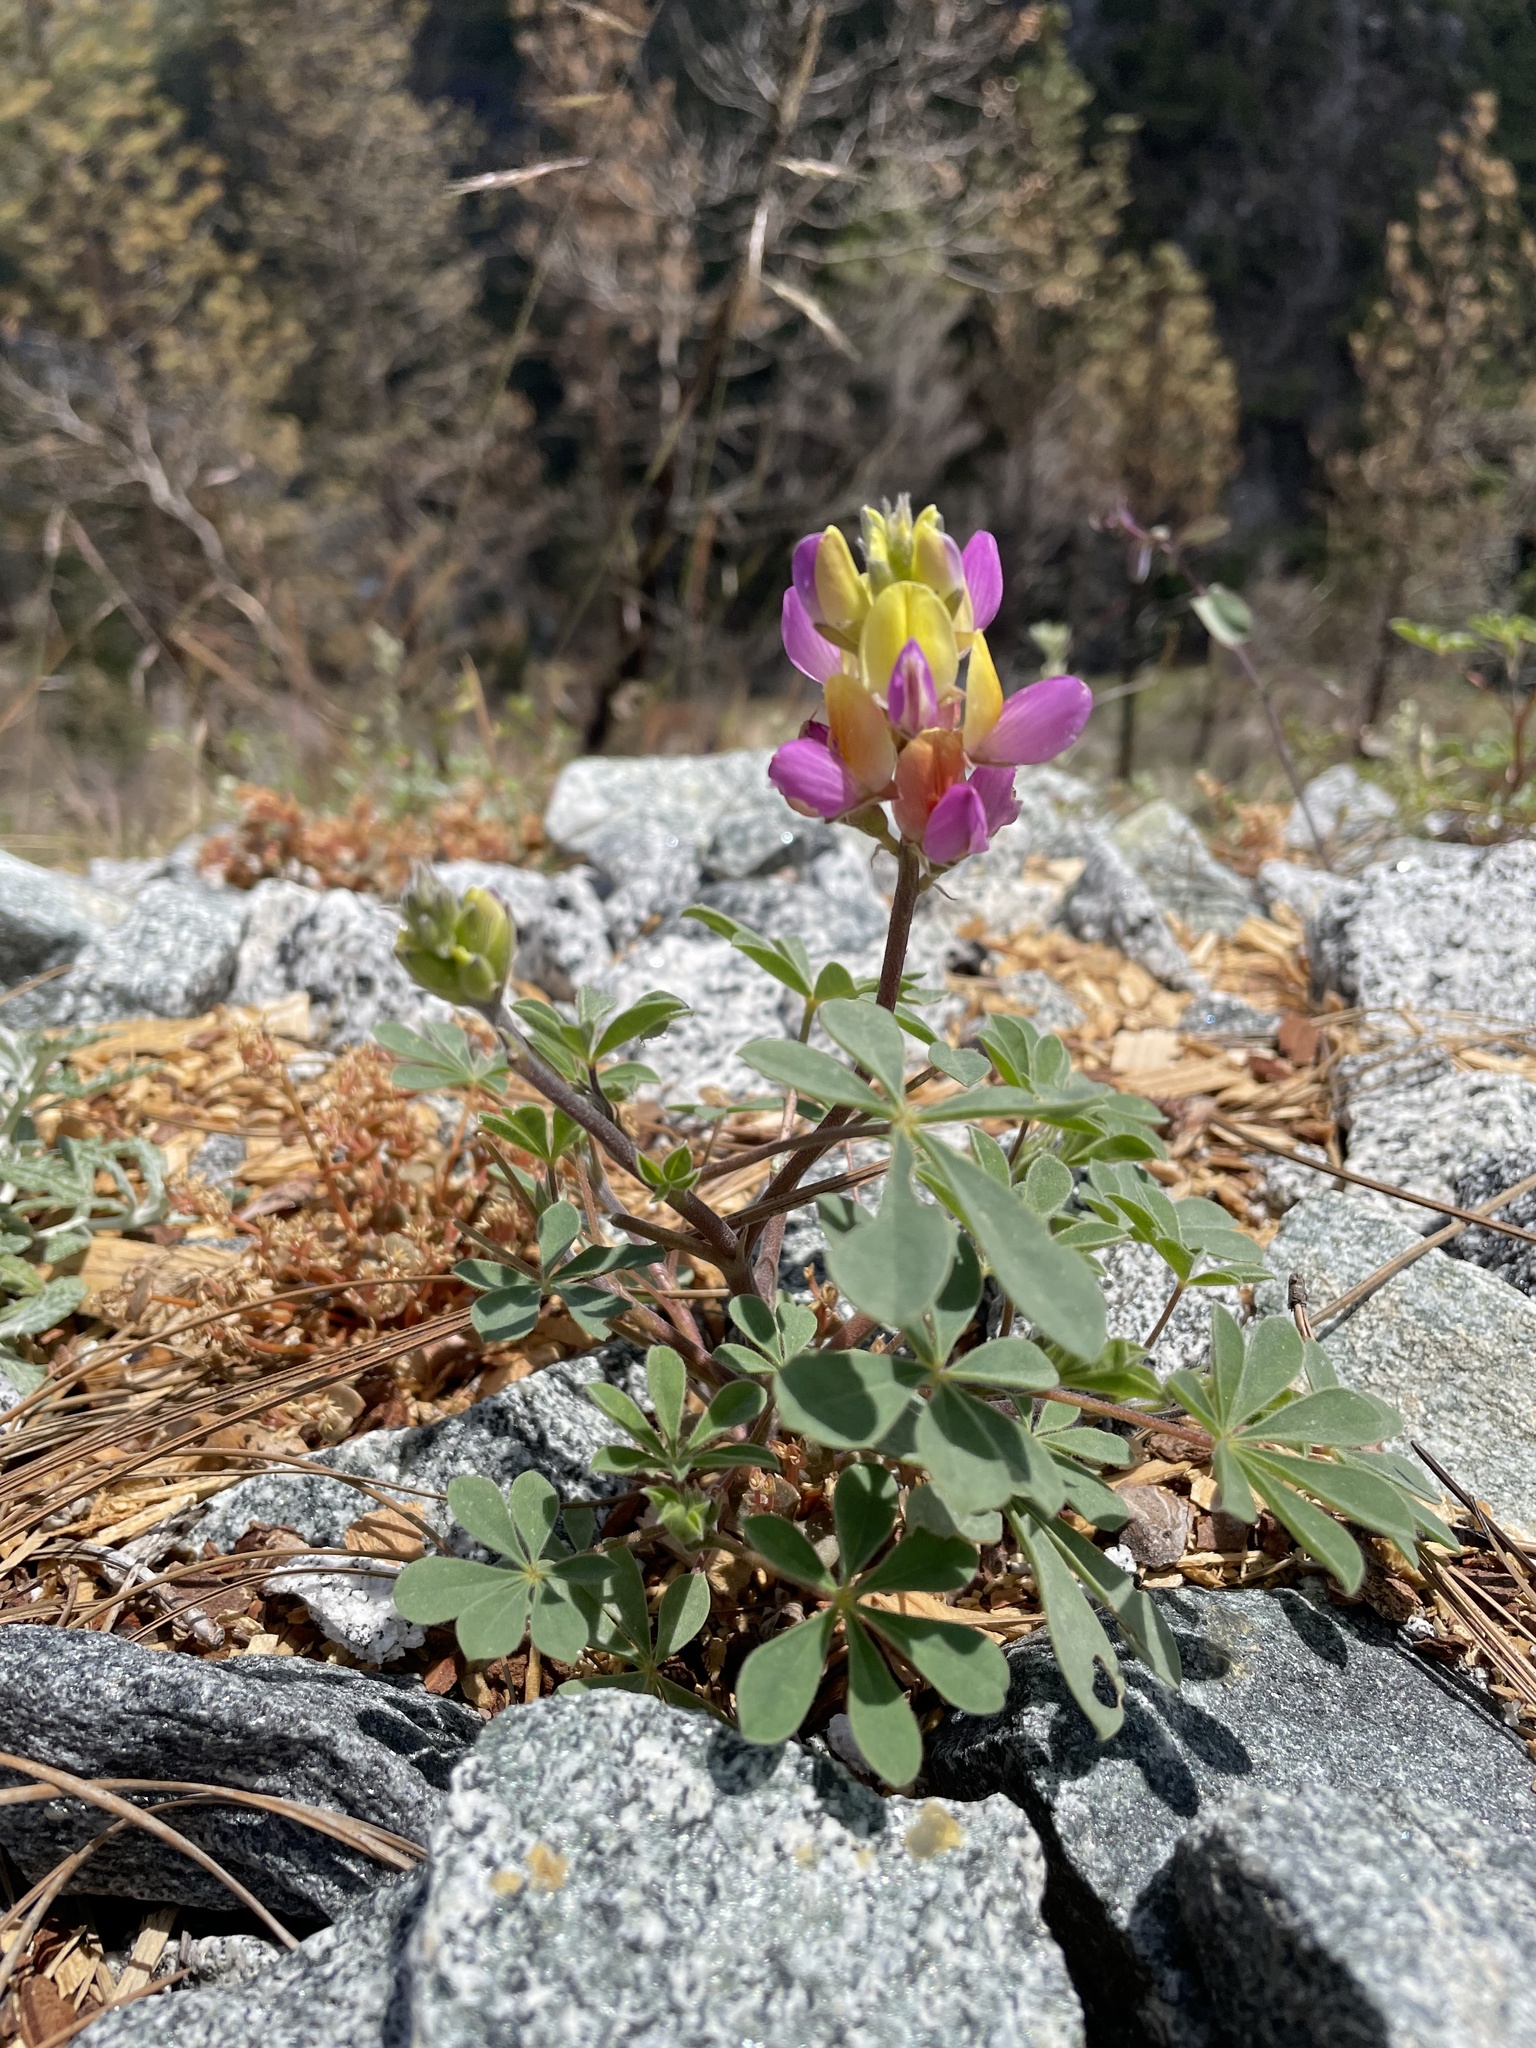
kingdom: Plantae
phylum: Tracheophyta
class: Magnoliopsida
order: Fabales
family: Fabaceae
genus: Lupinus
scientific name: Lupinus stiversii
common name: Harlequin lupine
